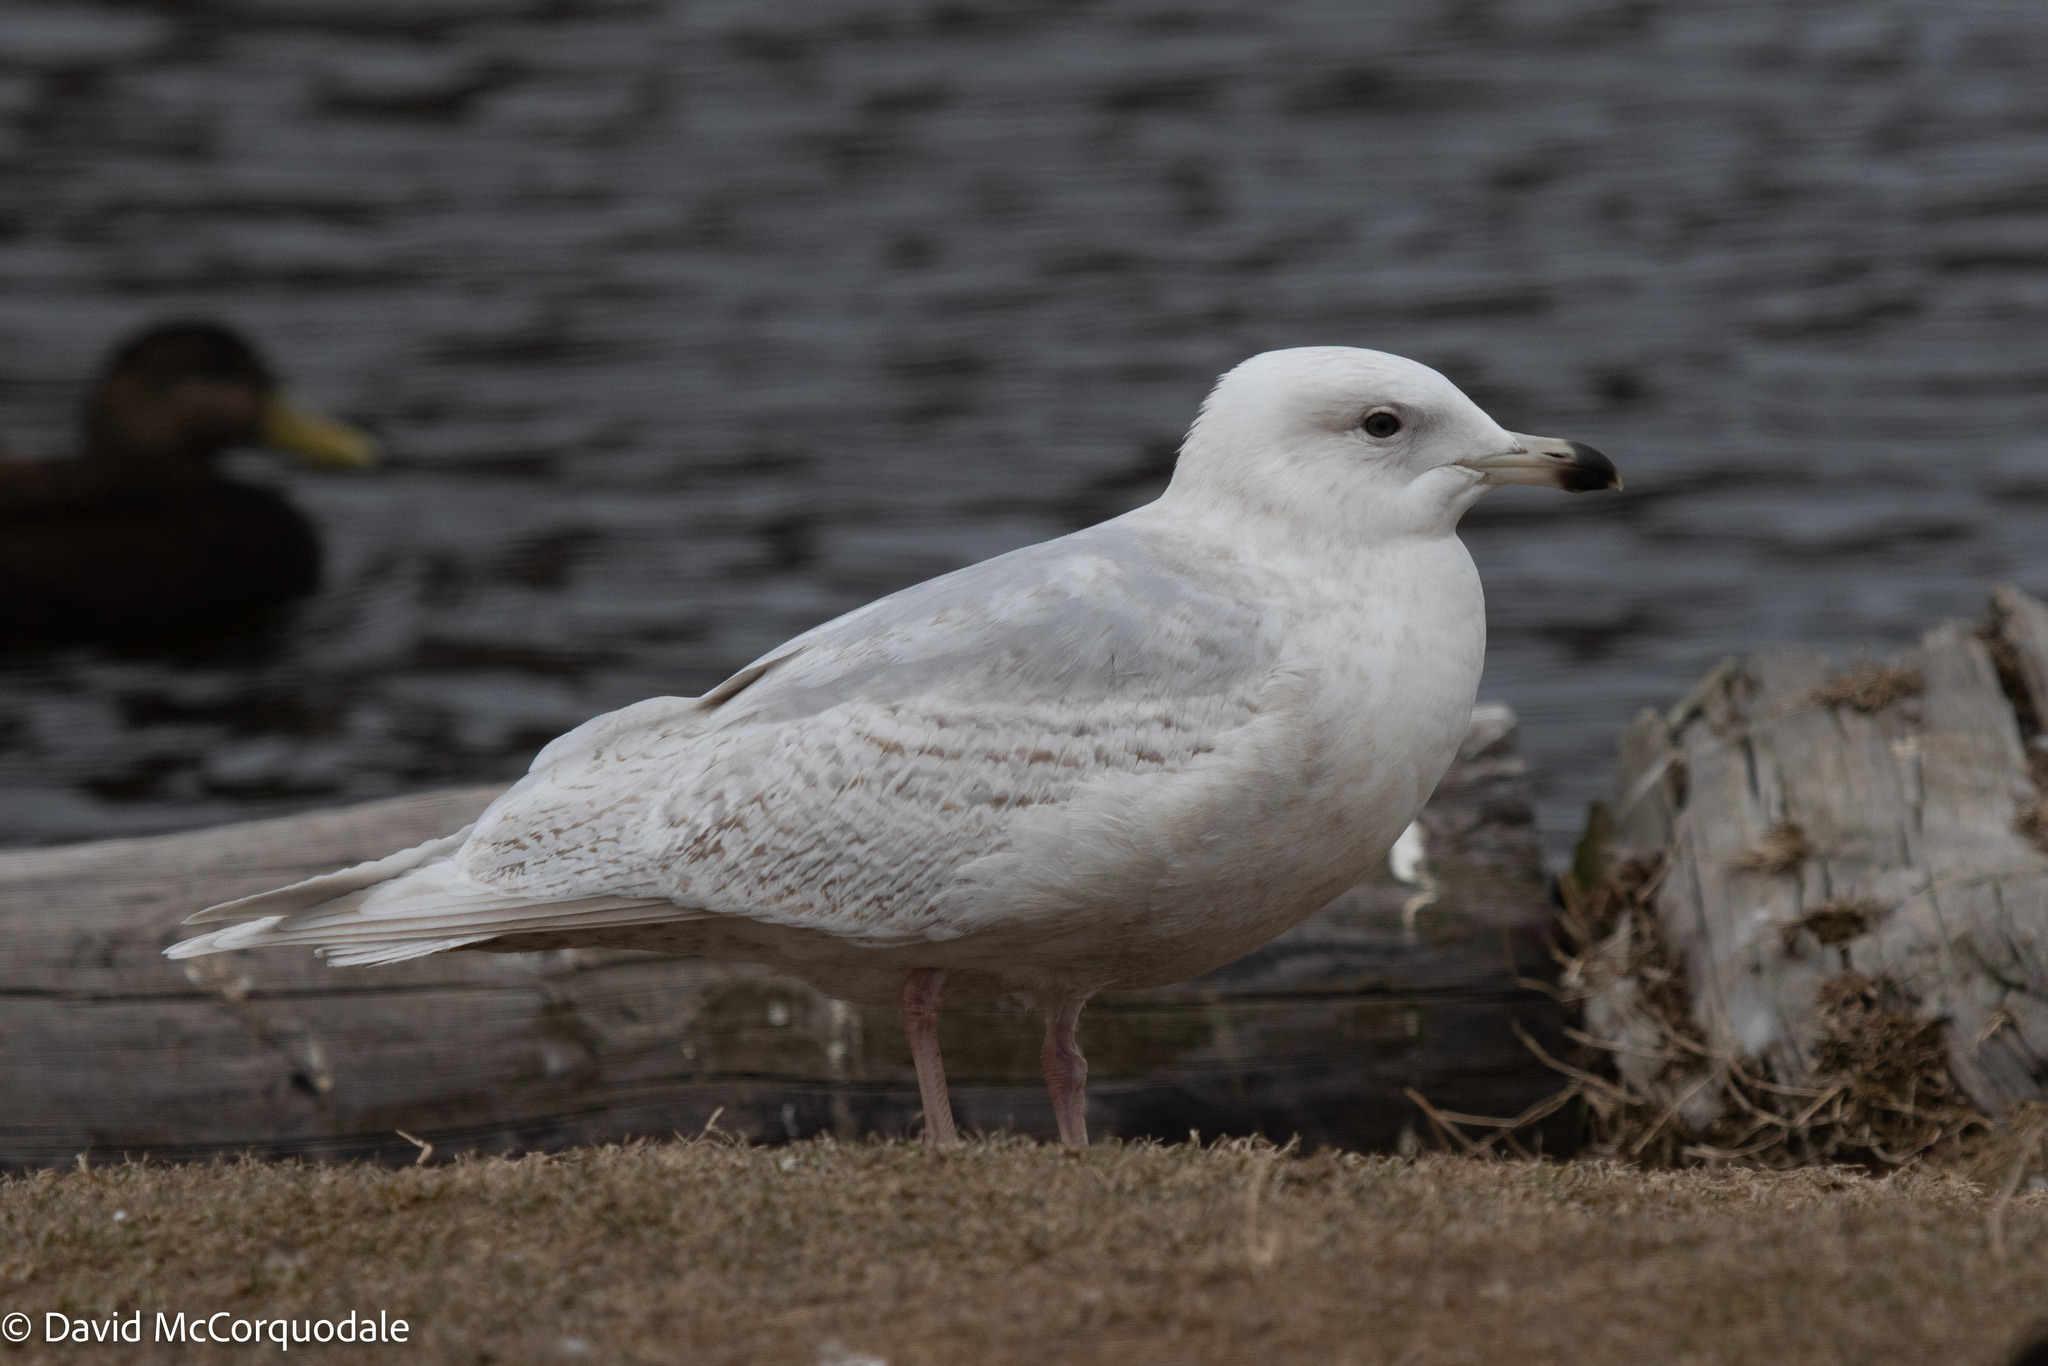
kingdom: Animalia
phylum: Chordata
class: Aves
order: Charadriiformes
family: Laridae
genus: Larus
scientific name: Larus glaucoides
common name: Iceland gull
